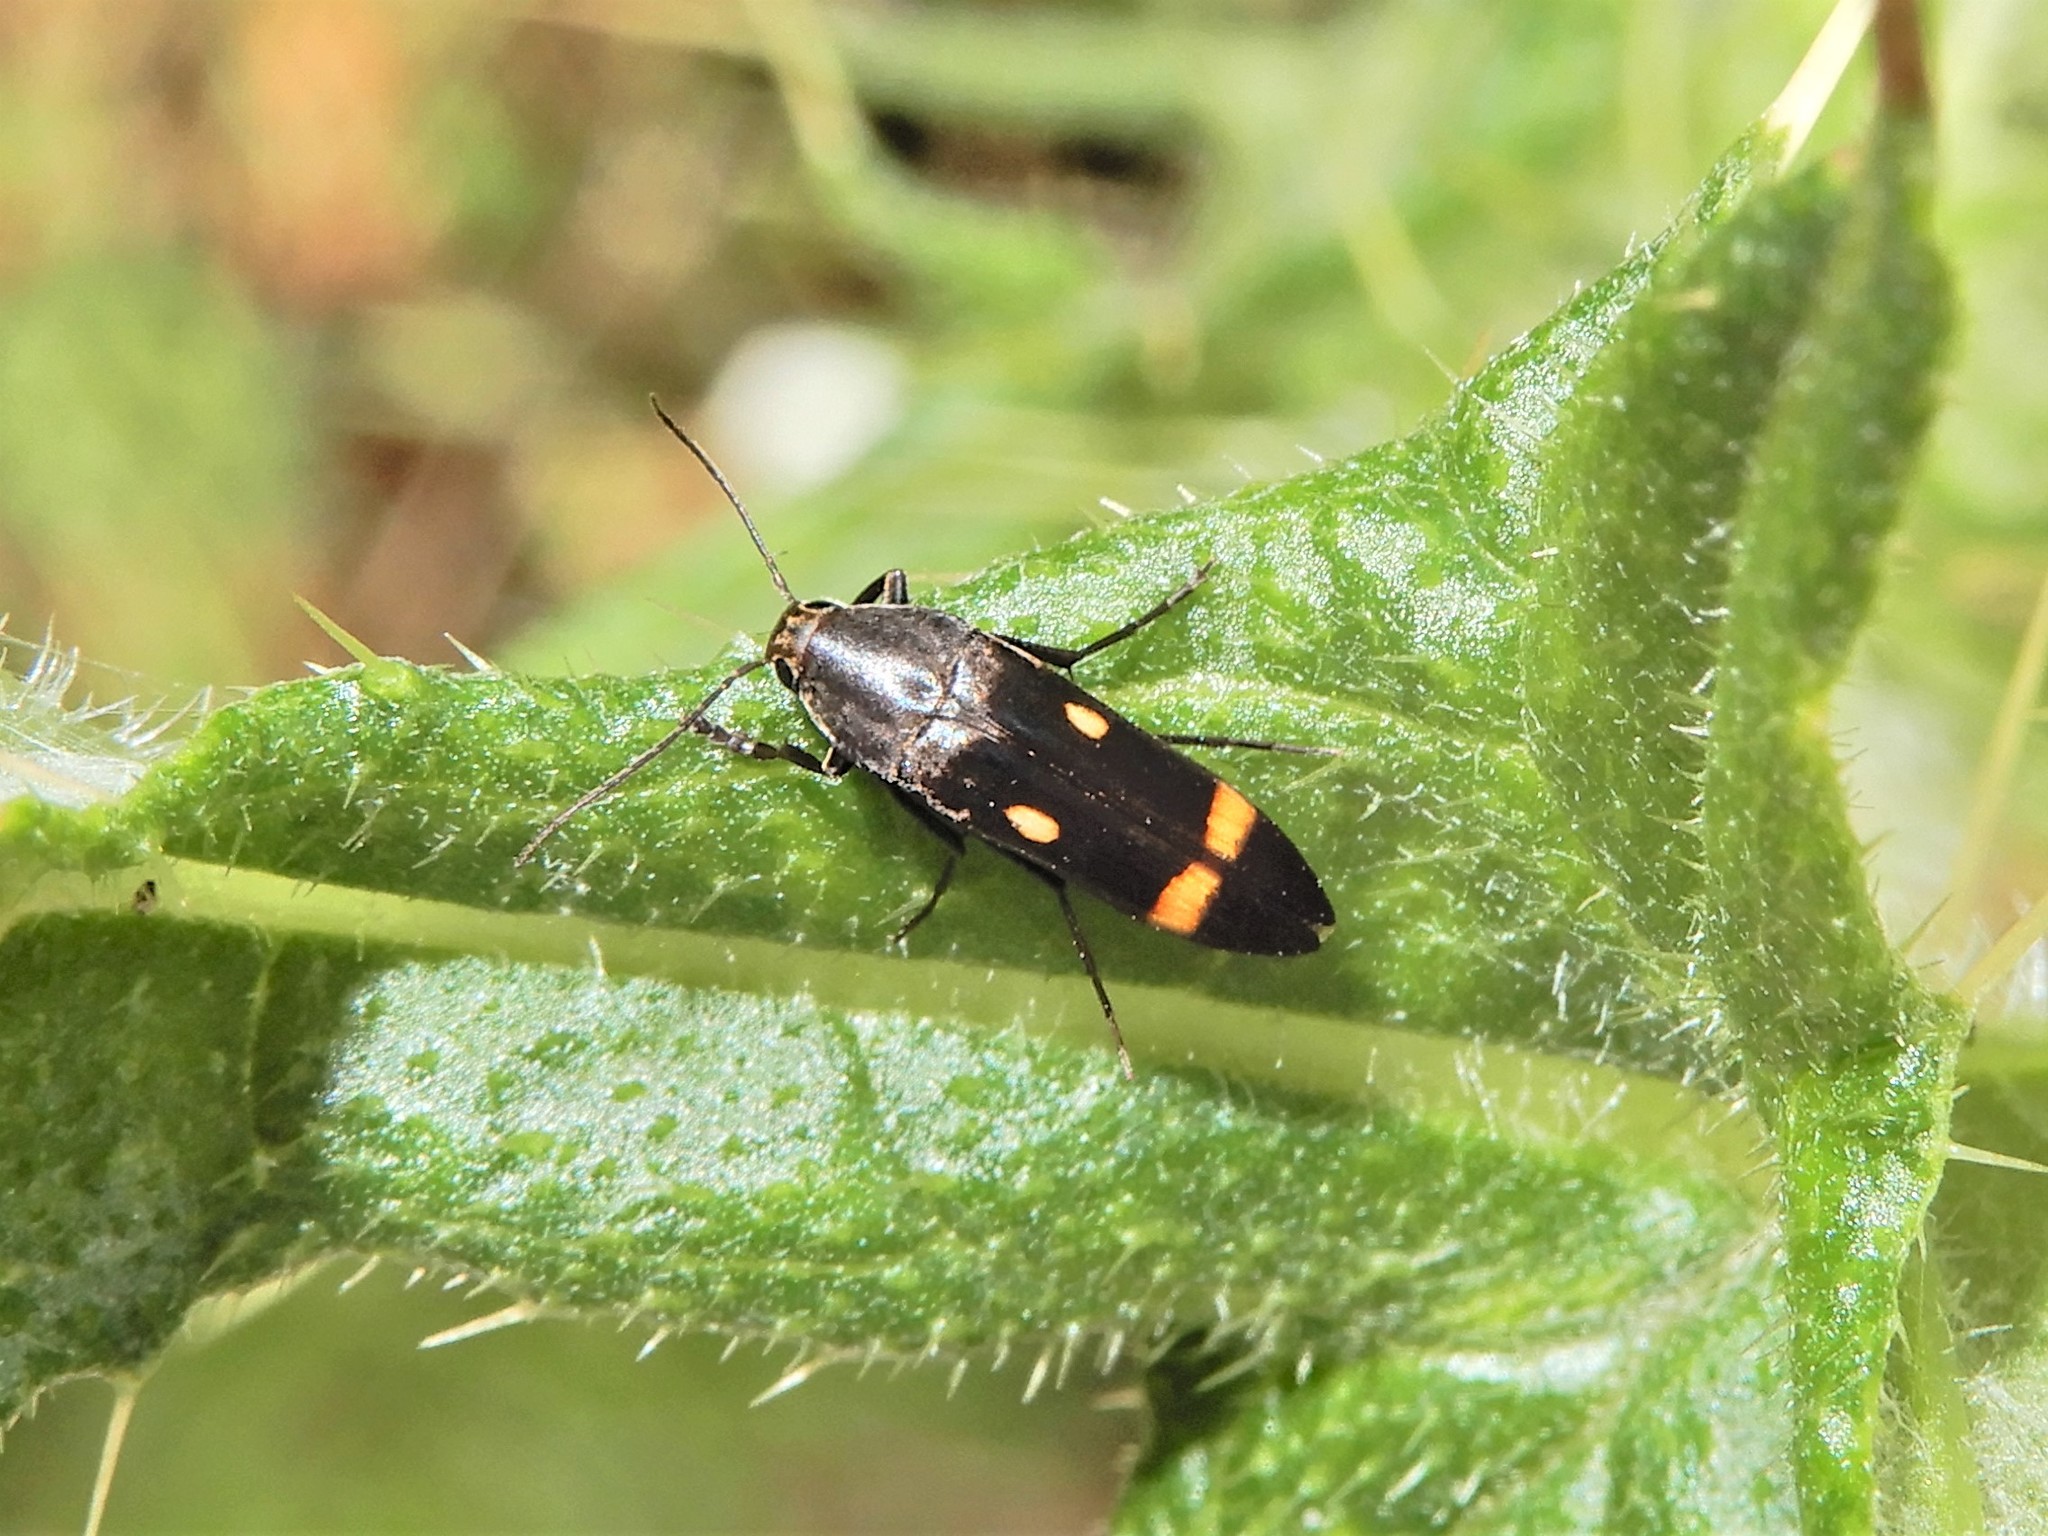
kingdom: Animalia
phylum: Arthropoda
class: Insecta
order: Coleoptera
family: Melandryidae
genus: Ctenoplectron
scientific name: Ctenoplectron
